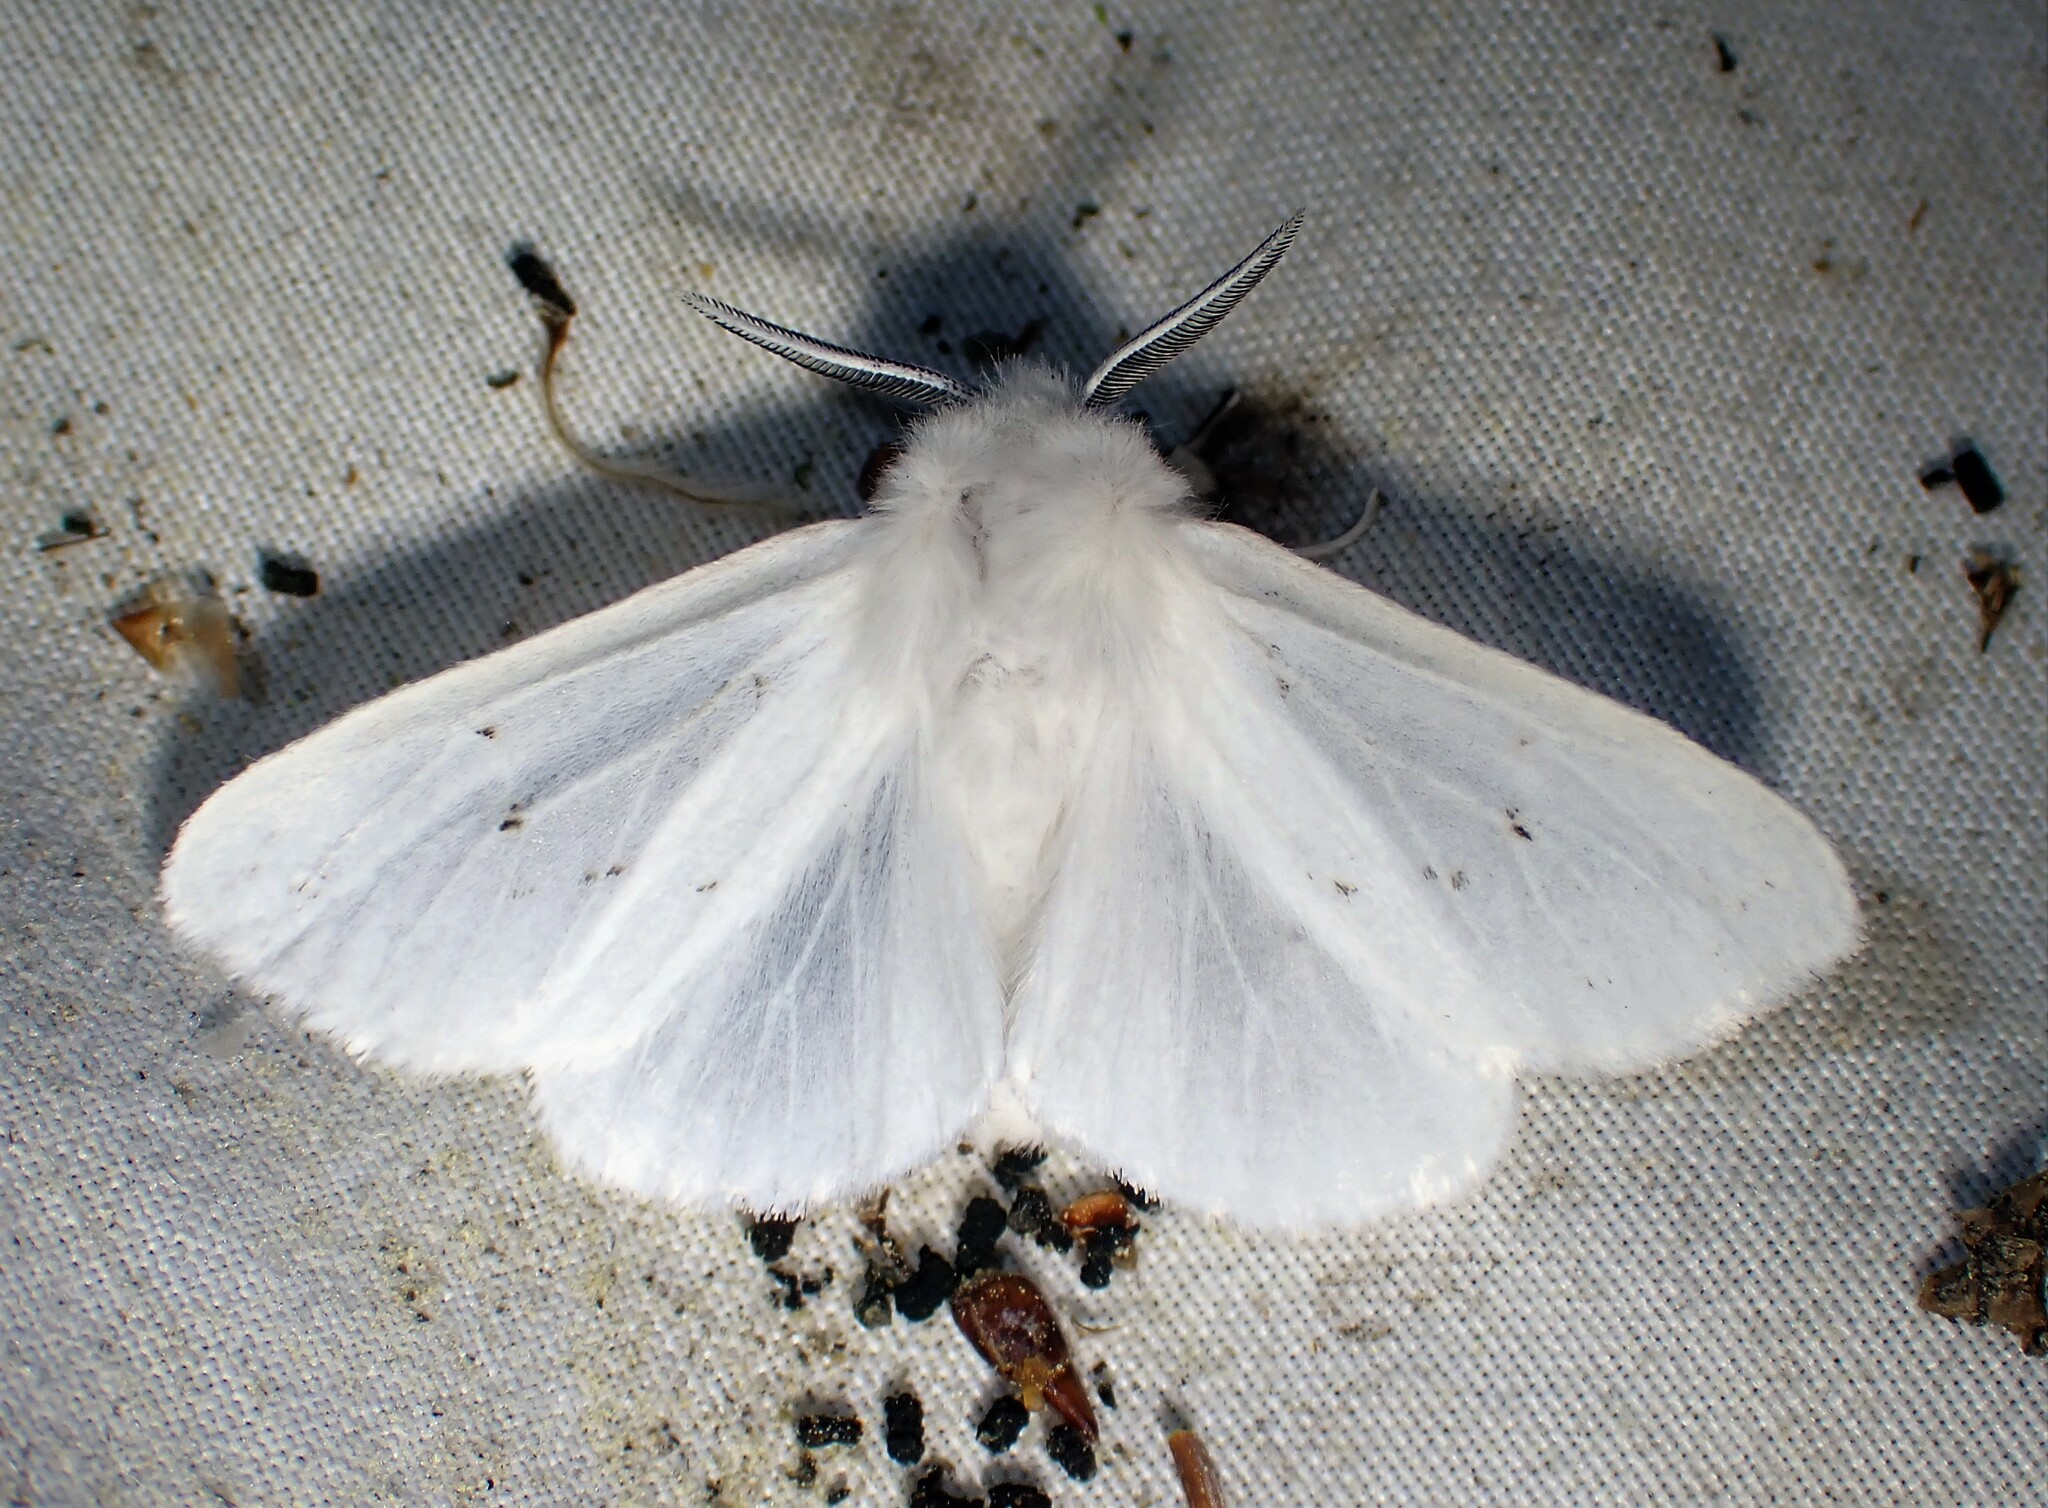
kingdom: Animalia
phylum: Arthropoda
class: Insecta
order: Lepidoptera
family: Erebidae
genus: Spilosoma
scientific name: Spilosoma congrua
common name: Agreeable tiger moth
